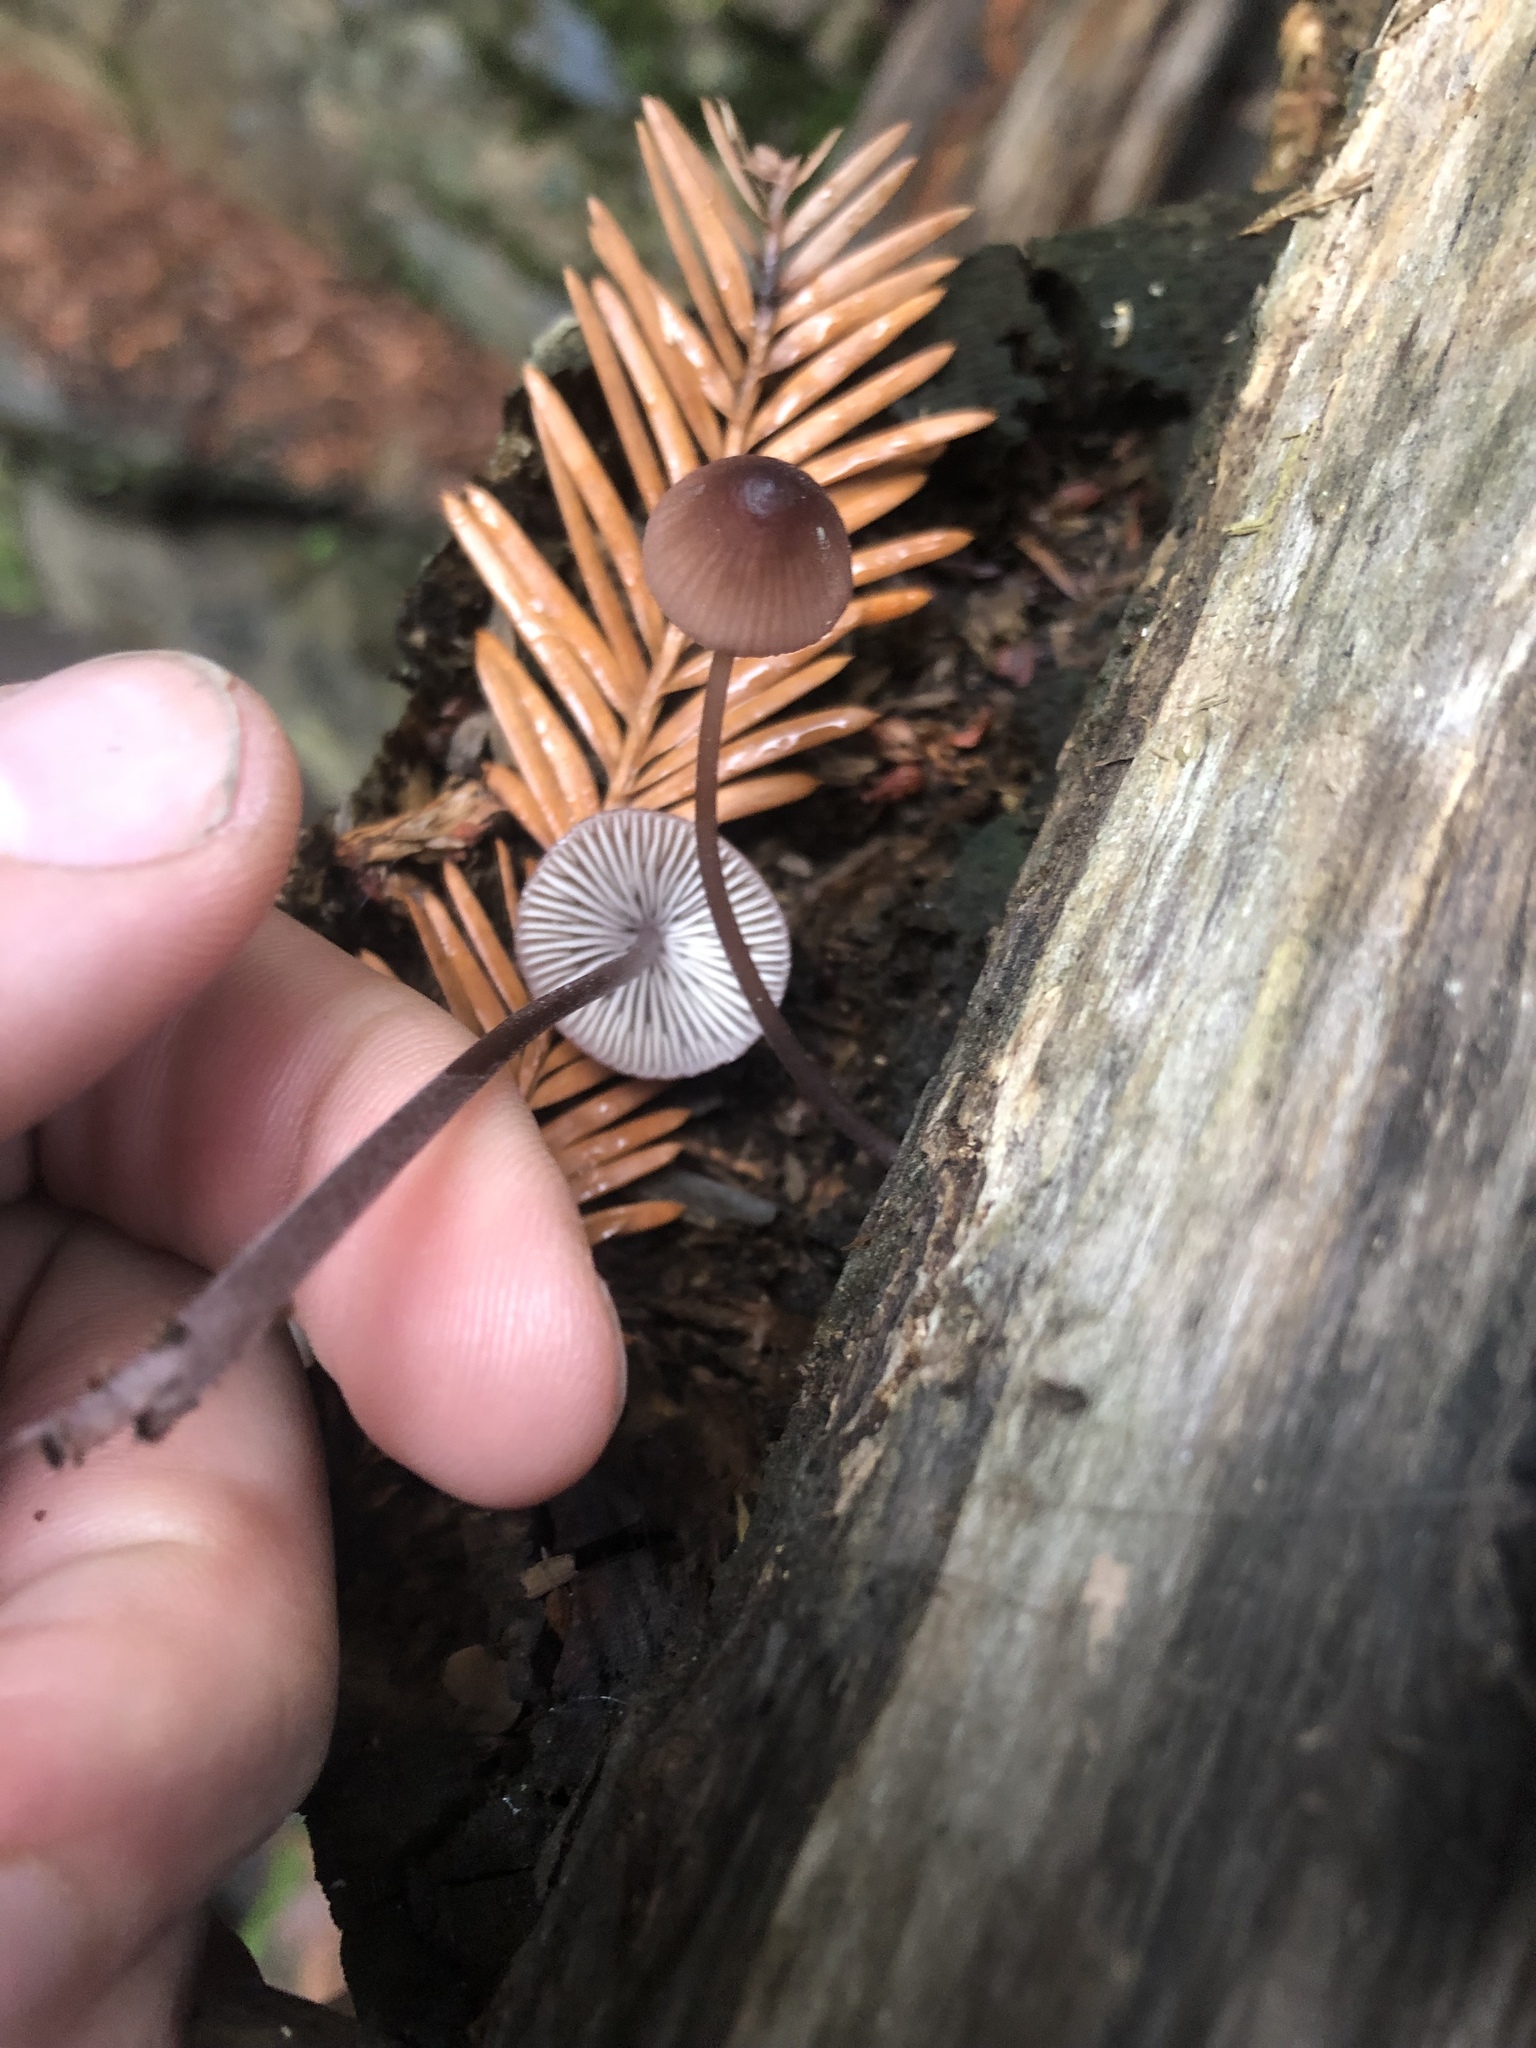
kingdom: Fungi
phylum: Basidiomycota
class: Agaricomycetes
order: Agaricales
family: Mycenaceae
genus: Mycena
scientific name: Mycena purpureofusca
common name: Purple edge bonnet
